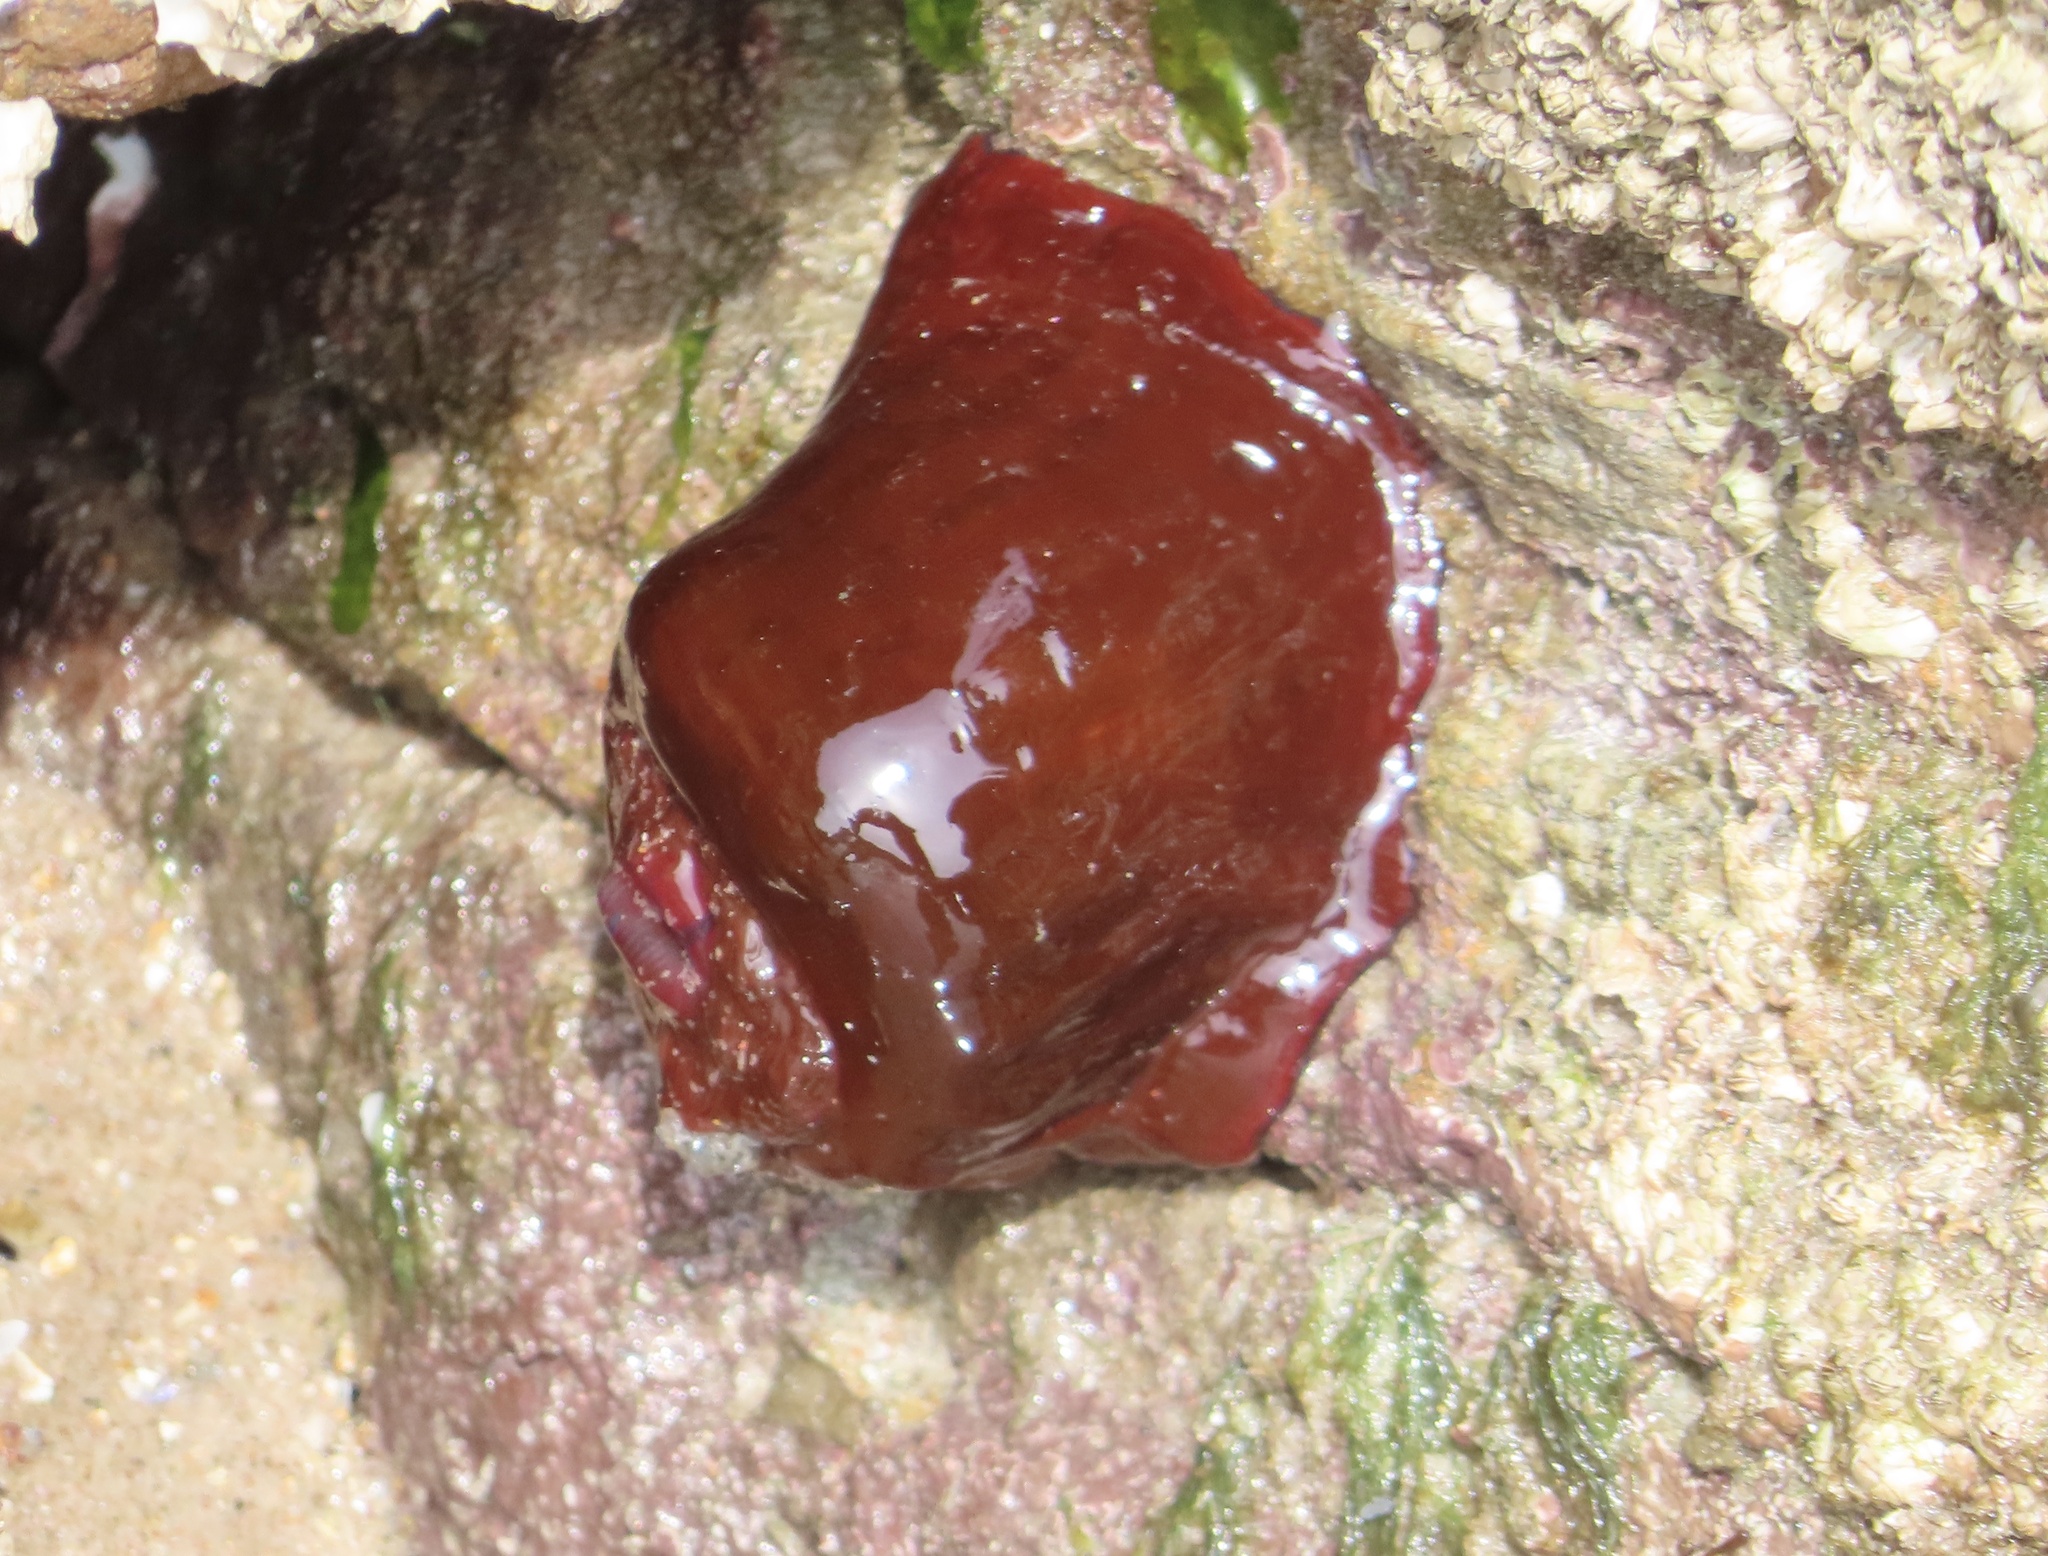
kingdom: Animalia
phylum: Cnidaria
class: Anthozoa
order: Actiniaria
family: Actiniidae
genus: Actinia
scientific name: Actinia equina
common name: Beadlet anemone
